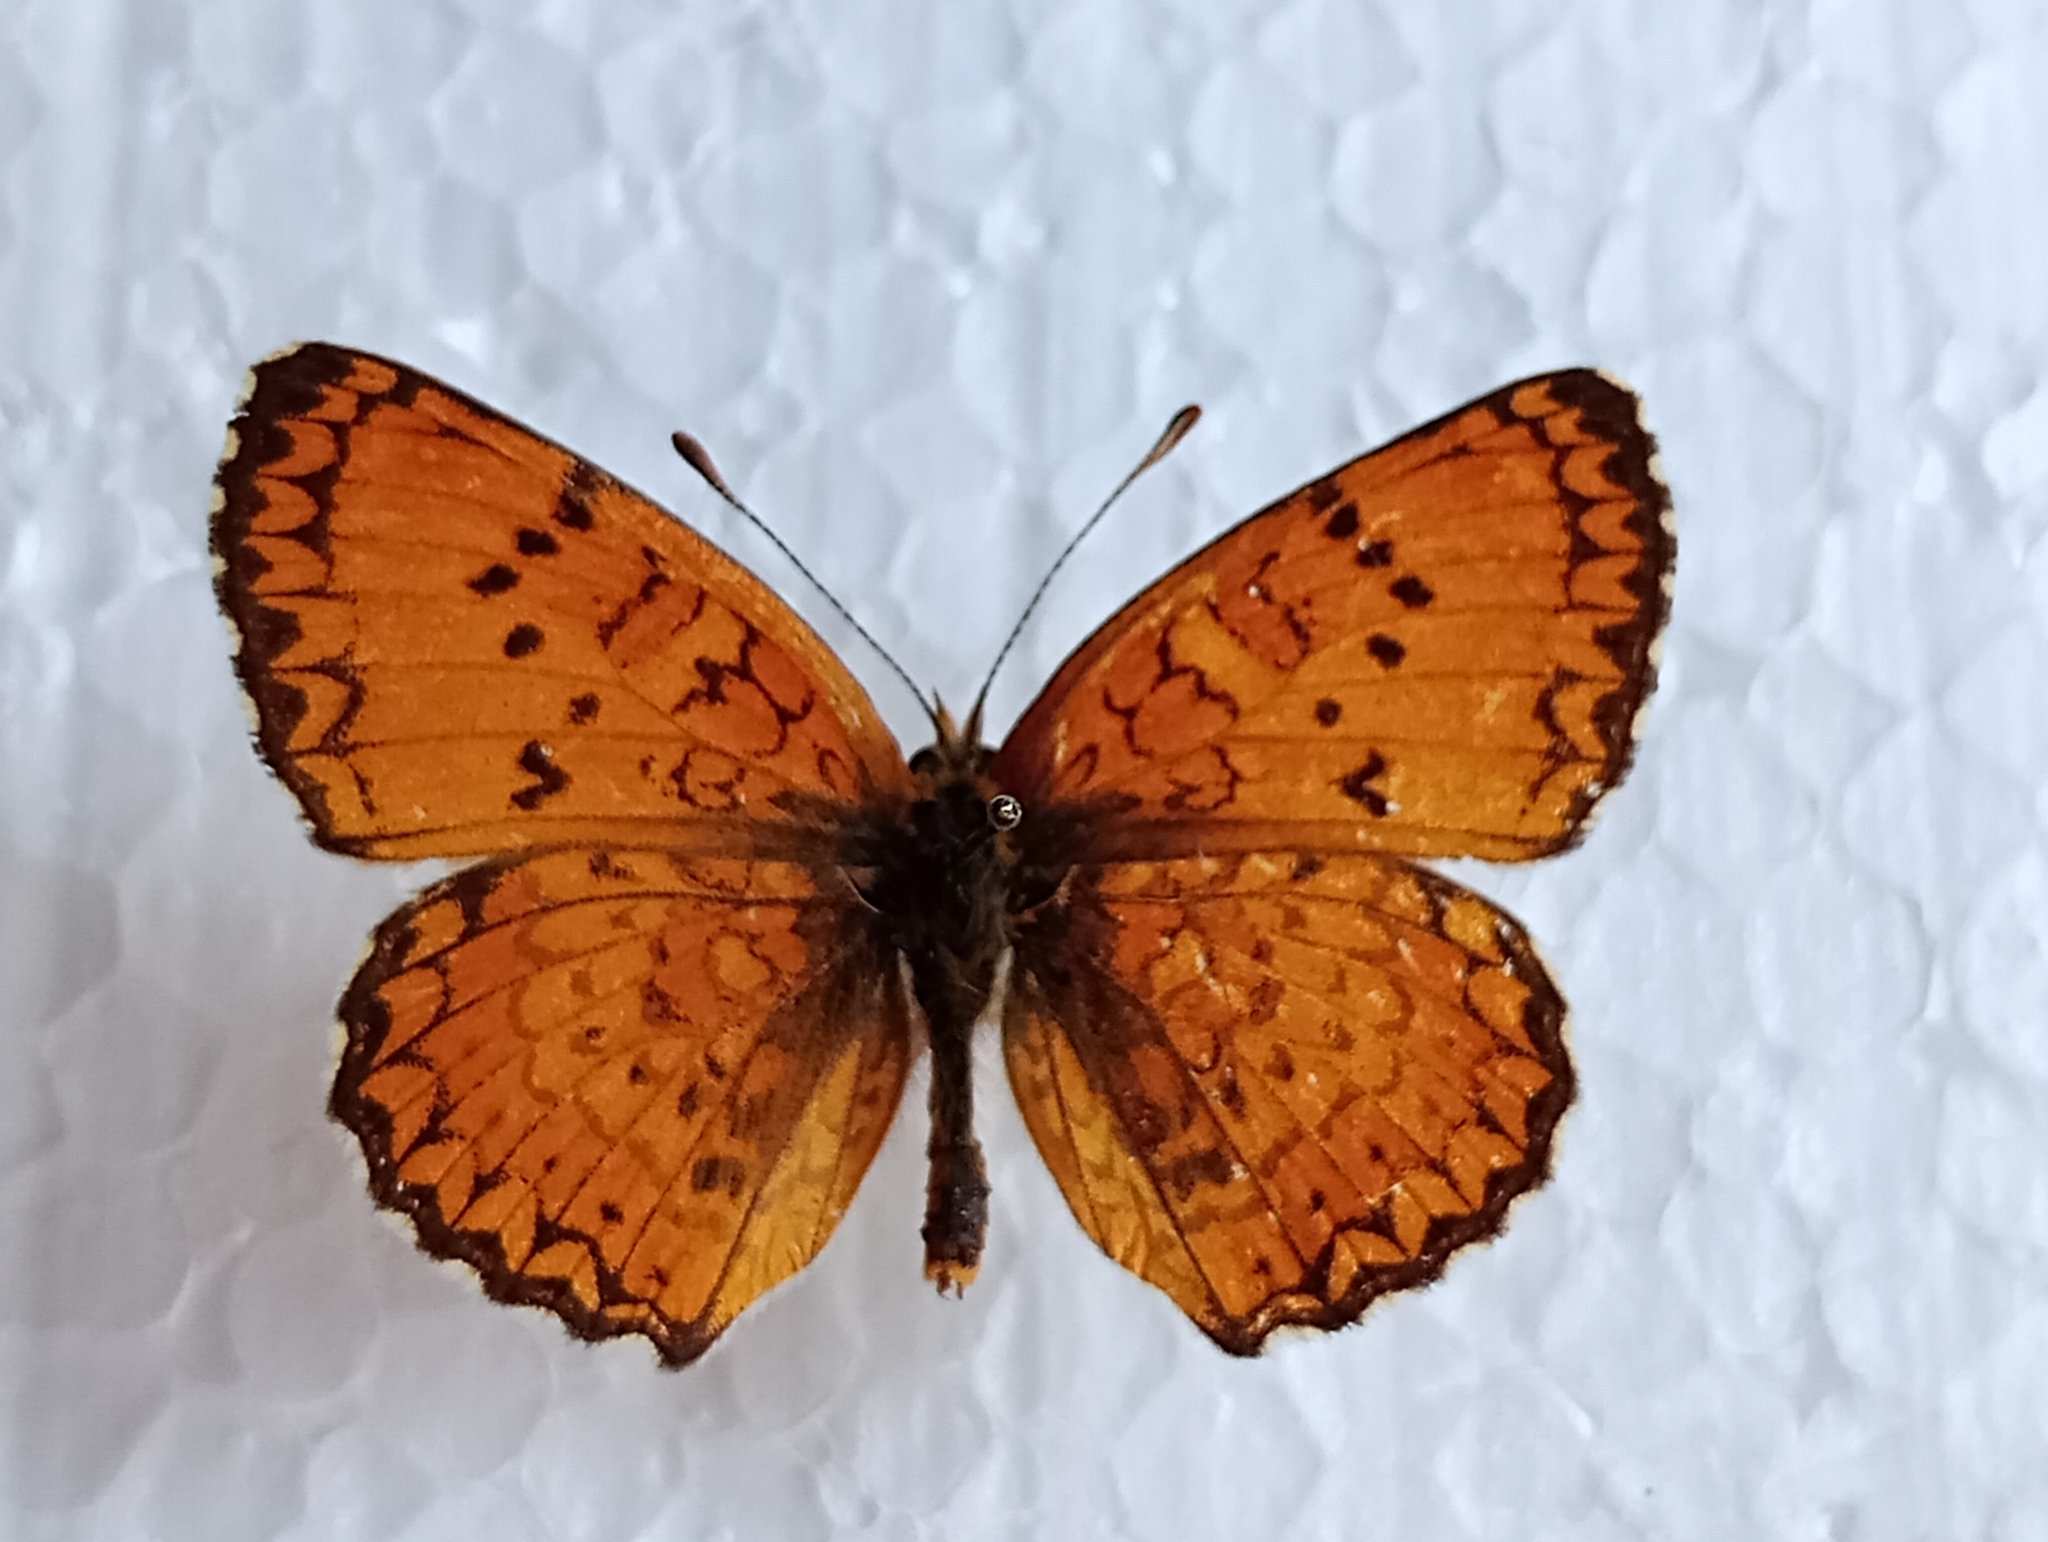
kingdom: Animalia
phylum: Arthropoda
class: Insecta
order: Lepidoptera
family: Nymphalidae
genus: Melitaea
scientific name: Melitaea arduinna
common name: Freyer's fritillary
